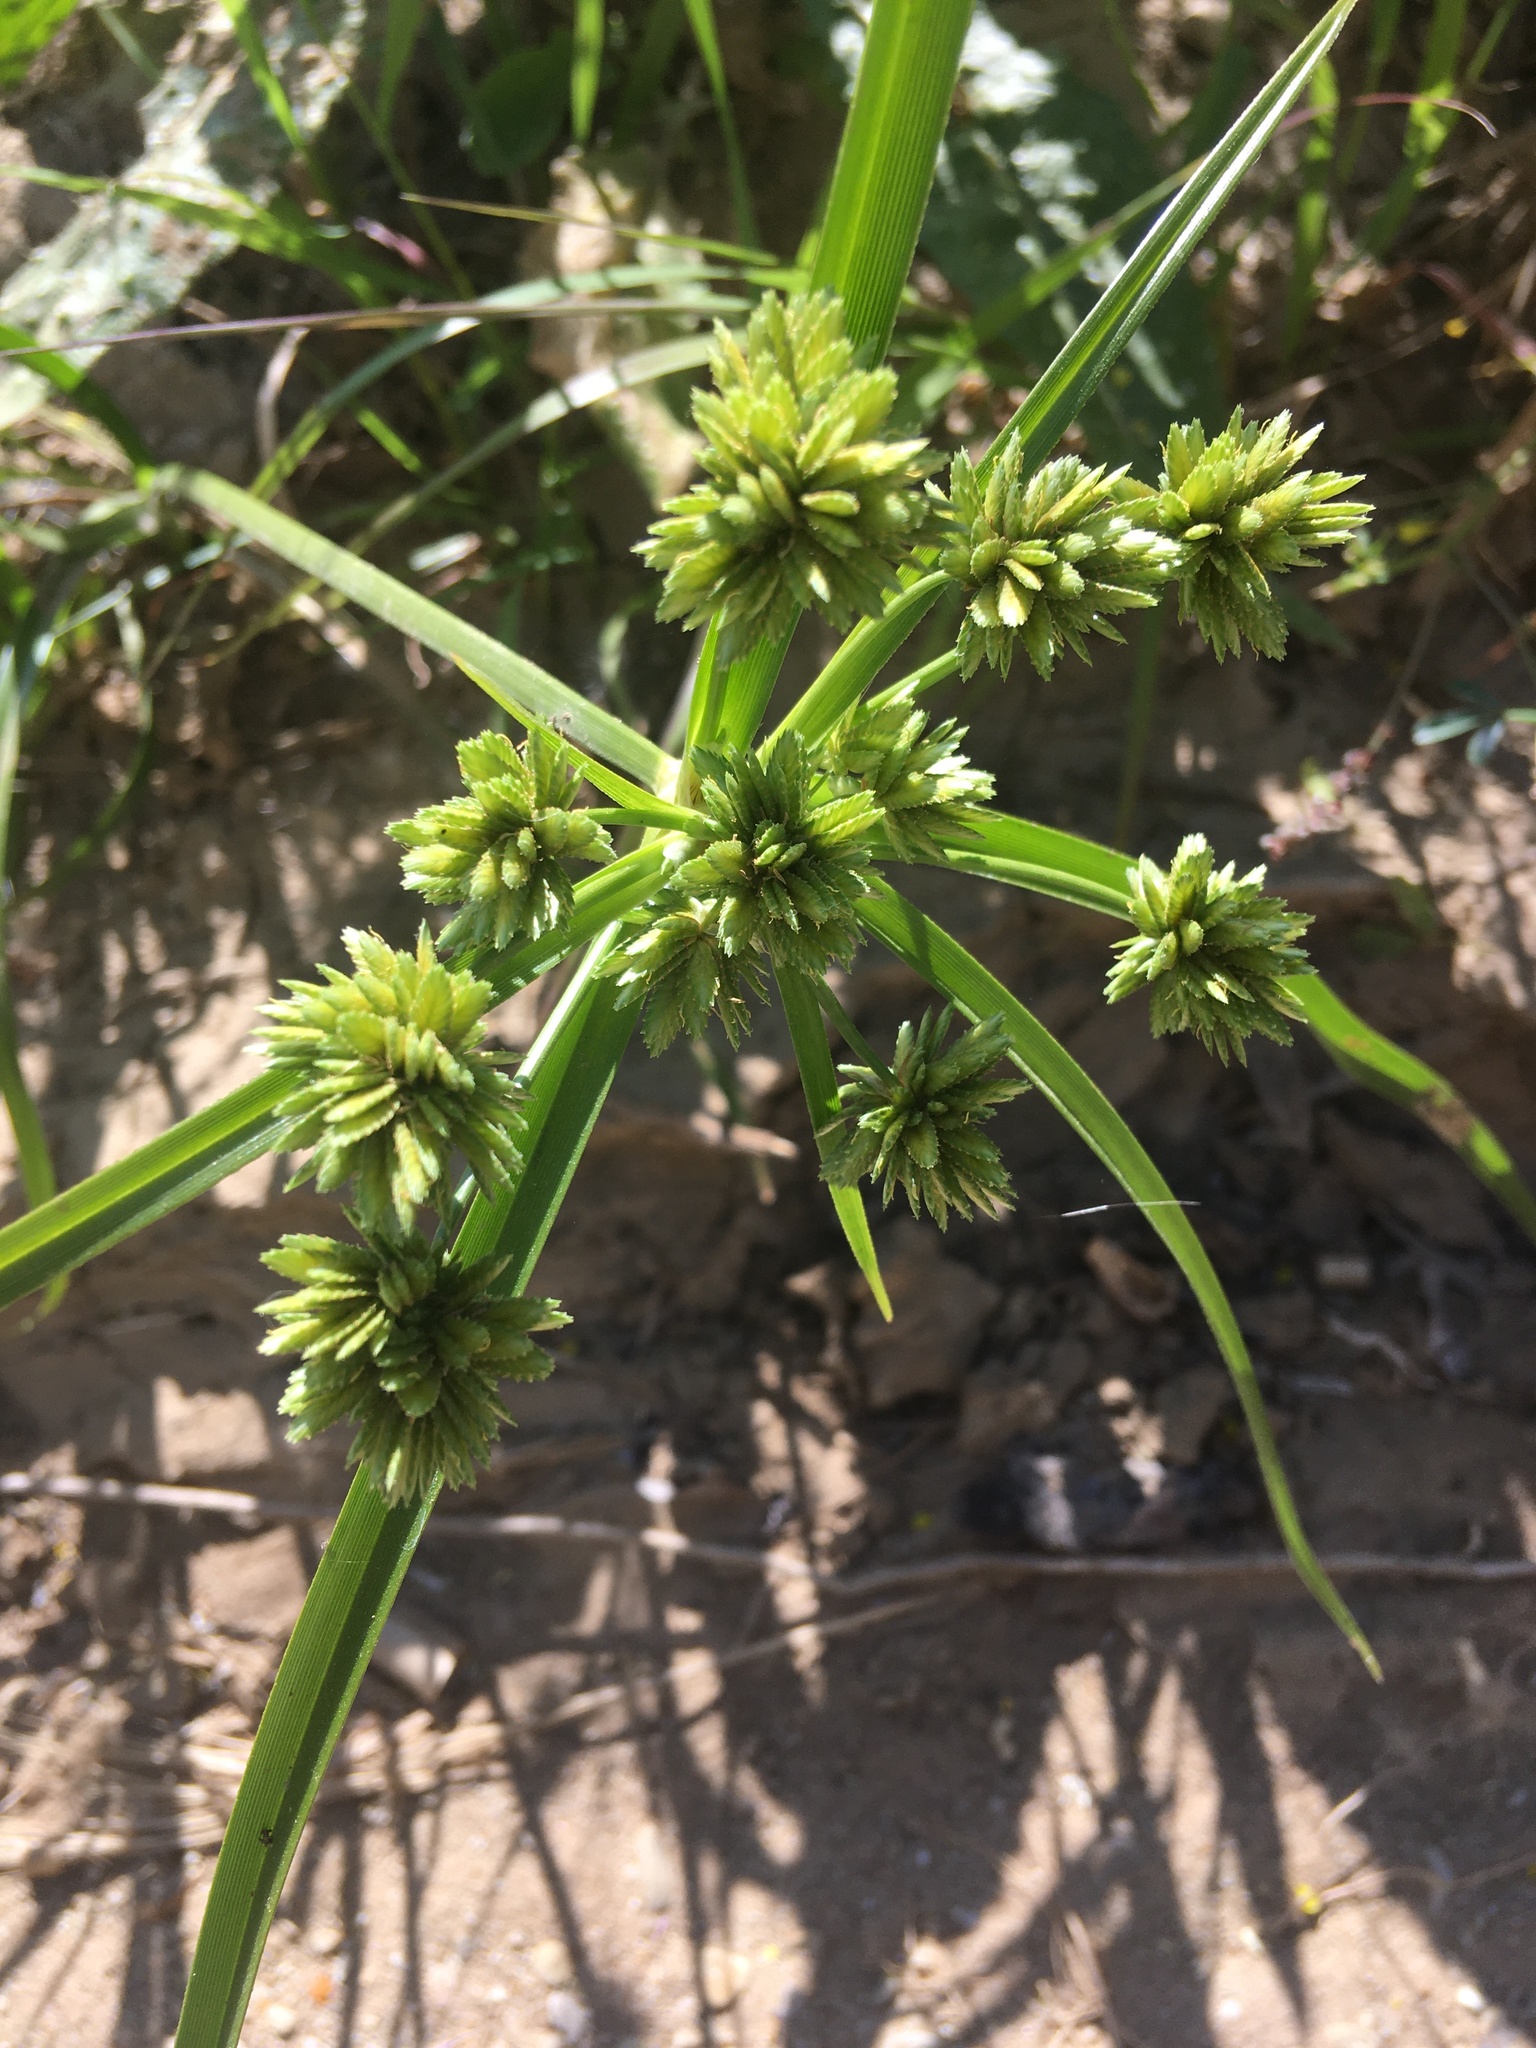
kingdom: Plantae
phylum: Tracheophyta
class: Liliopsida
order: Poales
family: Cyperaceae
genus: Cyperus
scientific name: Cyperus eragrostis
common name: Tall flatsedge
